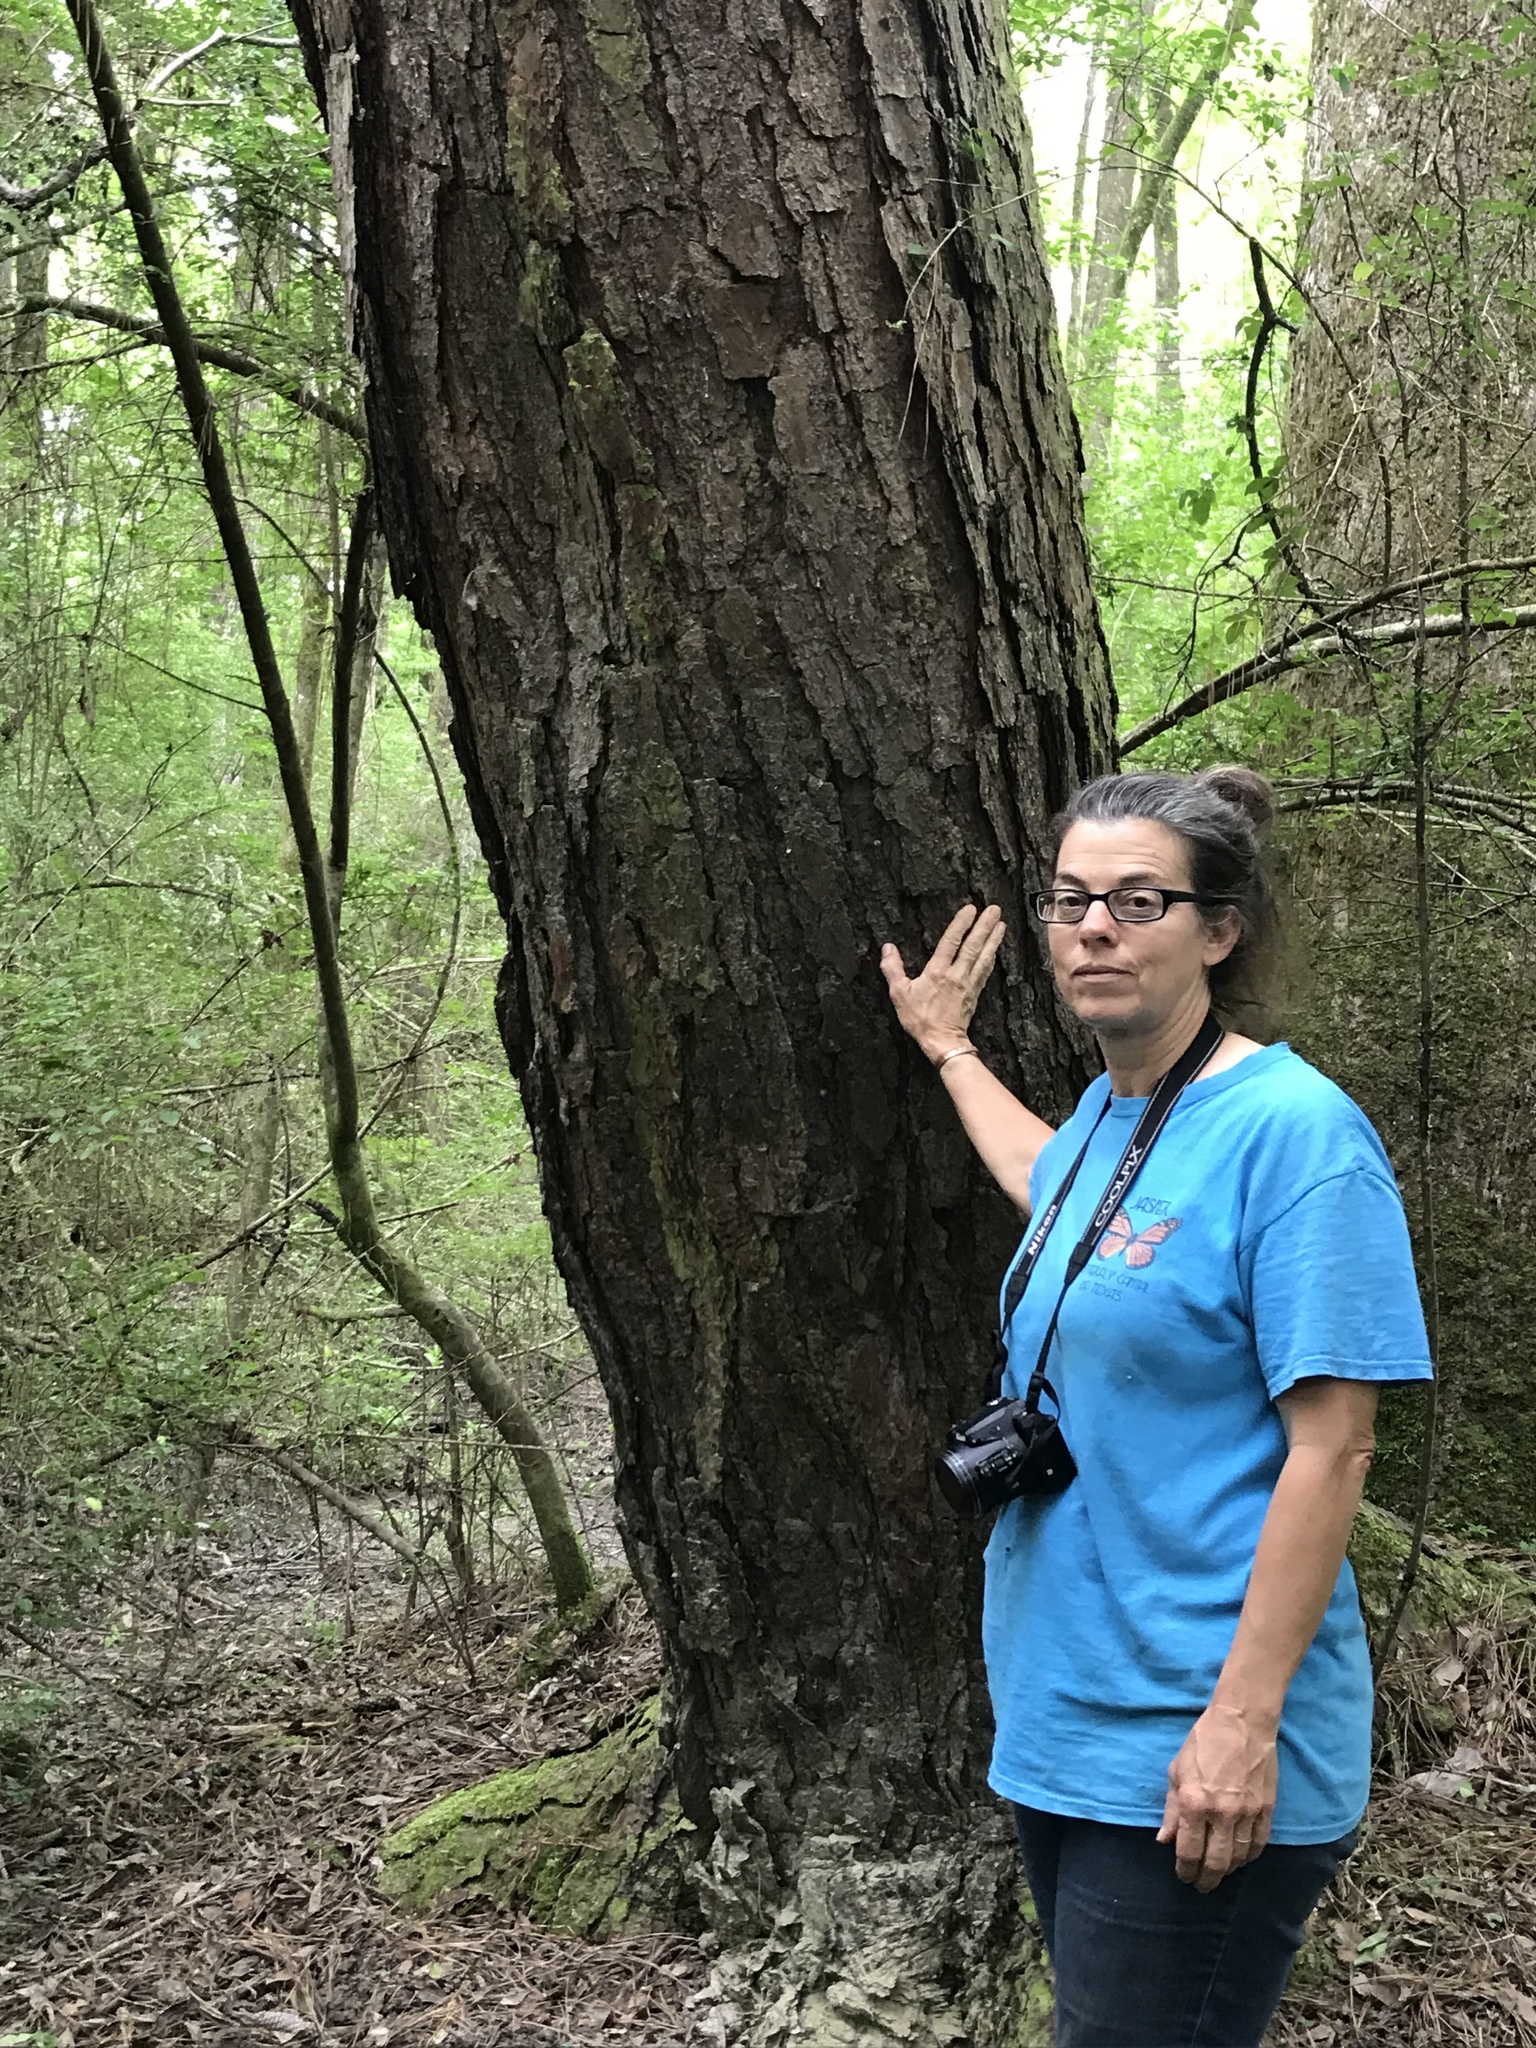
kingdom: Plantae
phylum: Tracheophyta
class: Pinopsida
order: Pinales
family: Pinaceae
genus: Pinus
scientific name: Pinus taeda
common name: Loblolly pine
